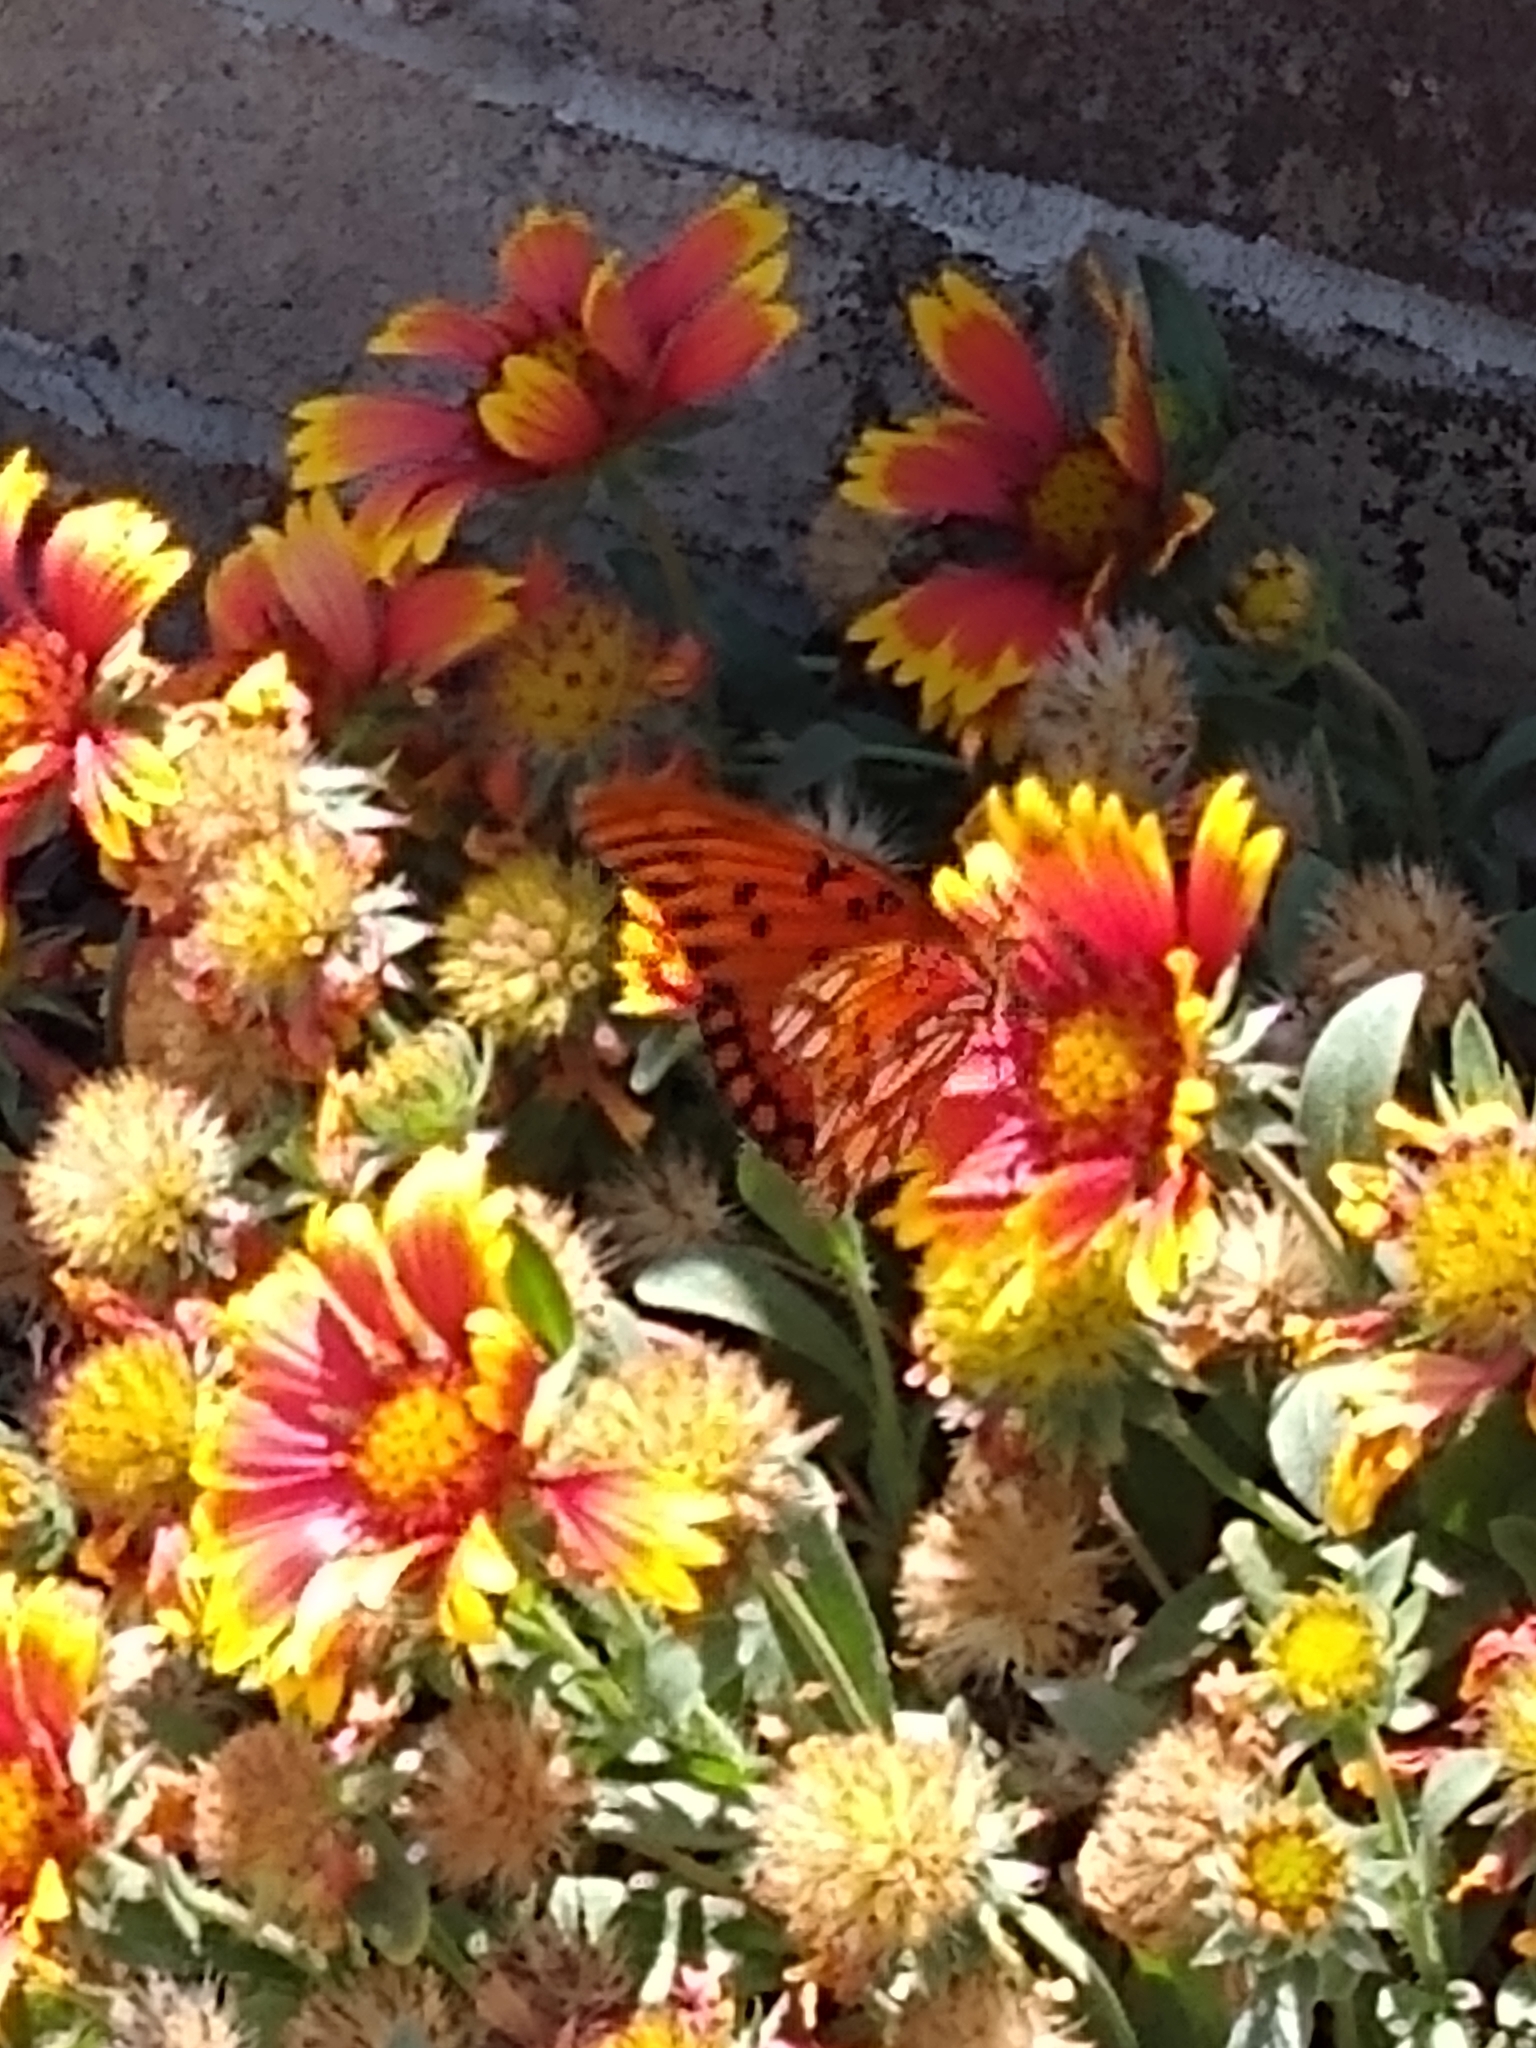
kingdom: Animalia
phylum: Arthropoda
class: Insecta
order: Lepidoptera
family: Nymphalidae
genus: Dione
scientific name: Dione vanillae
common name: Gulf fritillary
